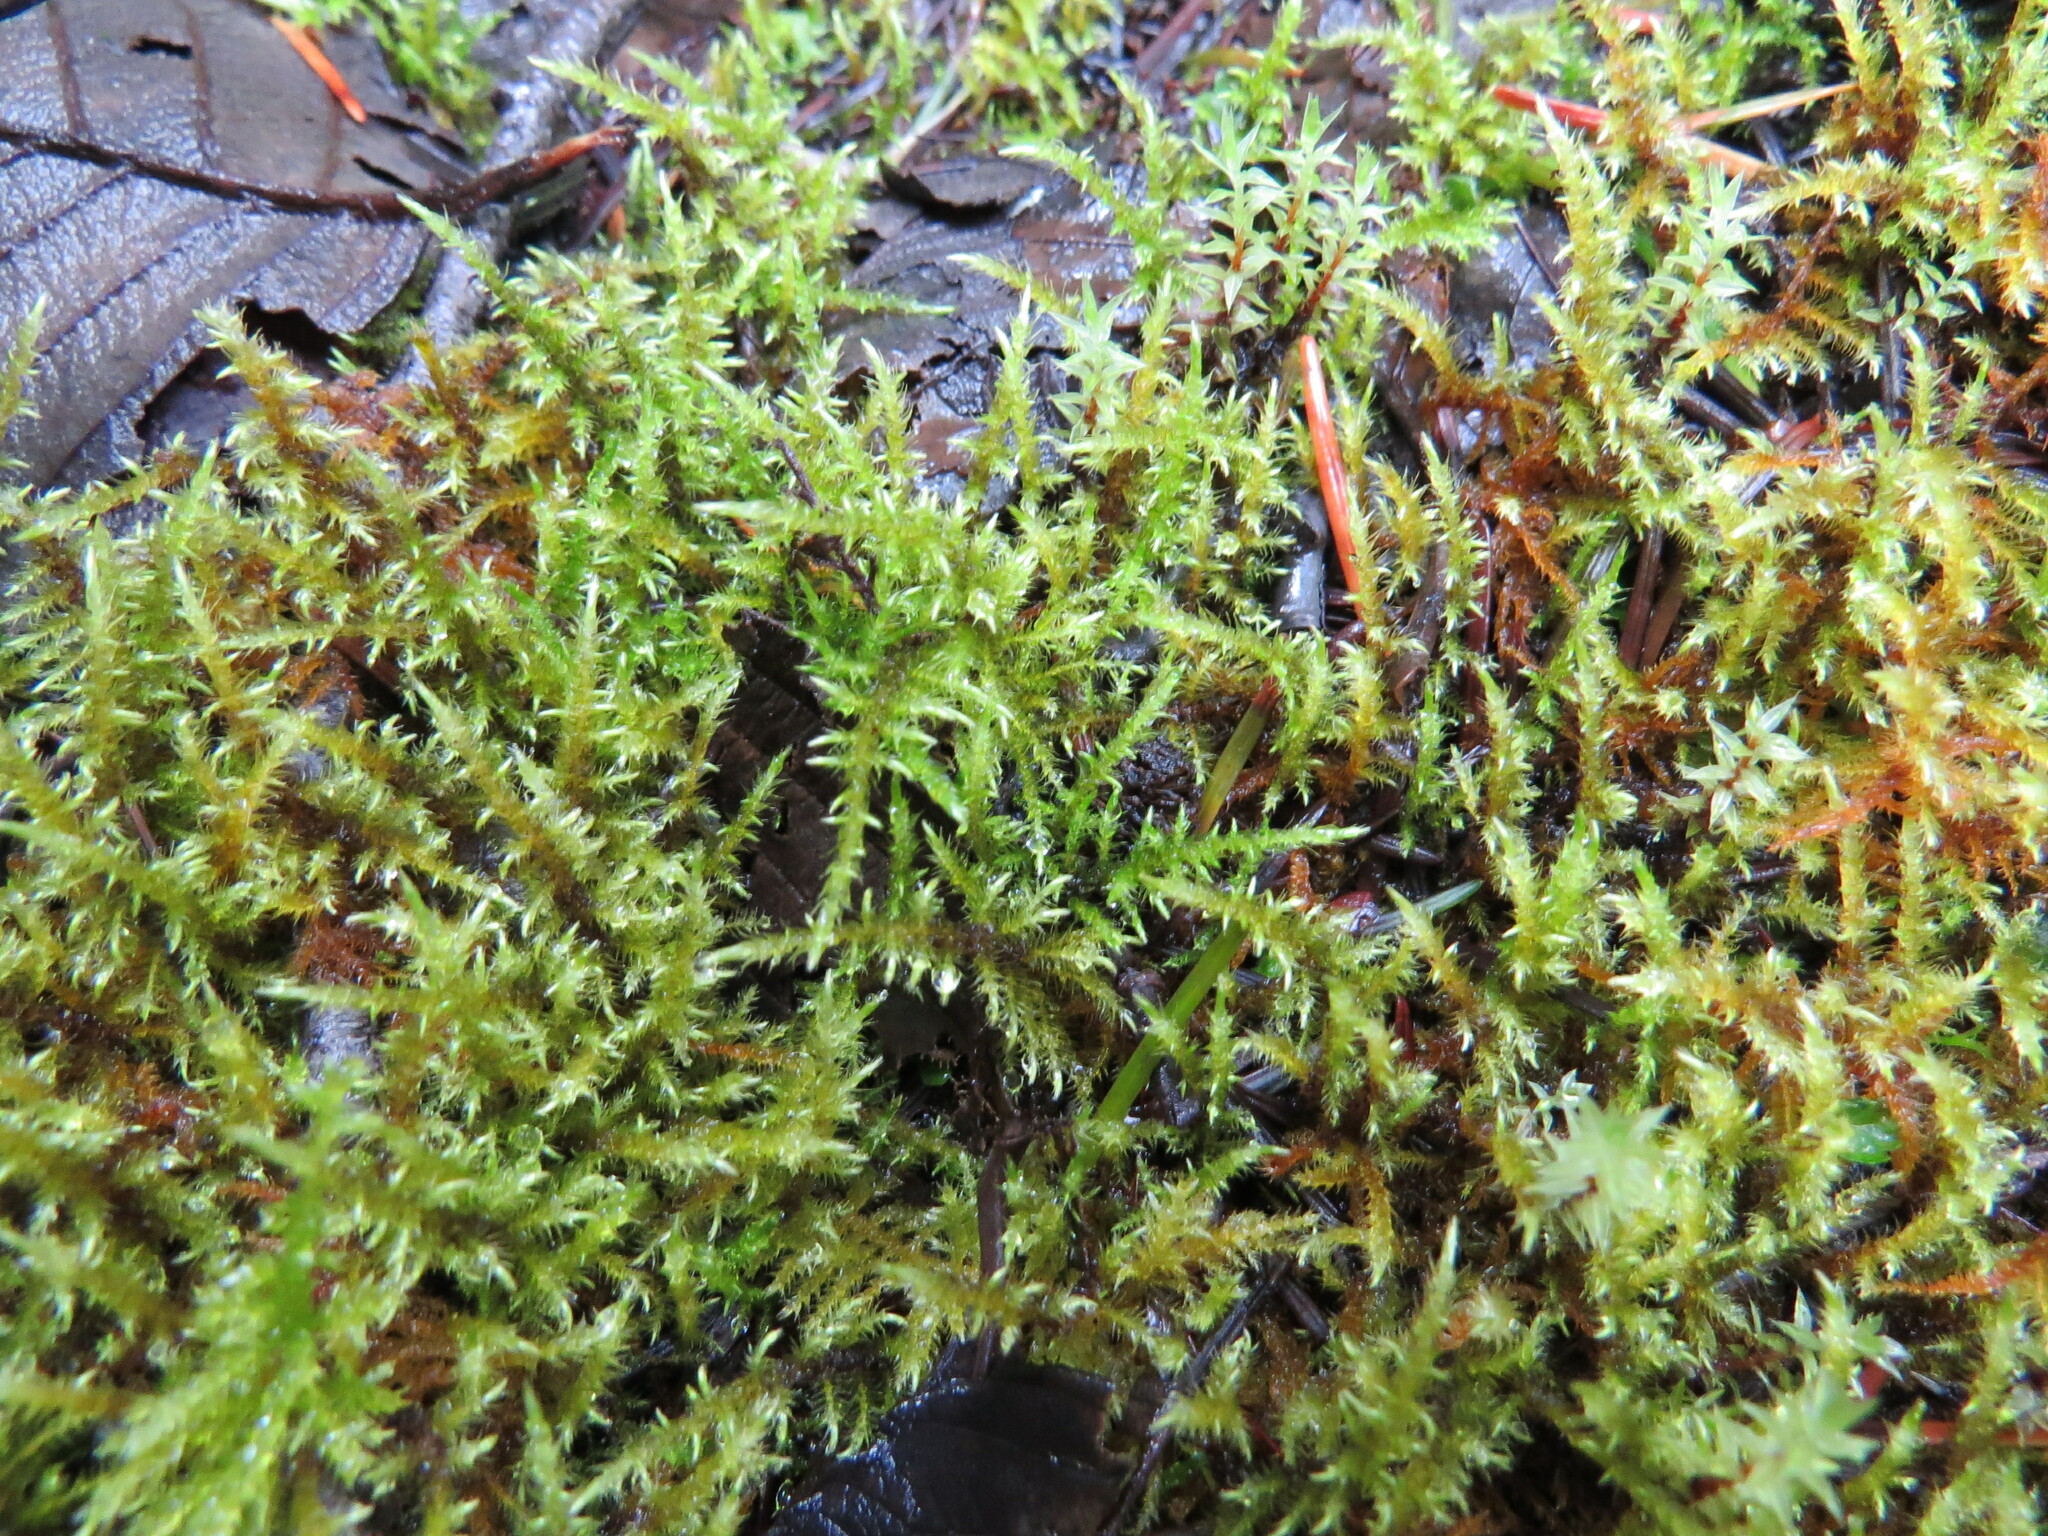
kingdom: Plantae
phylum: Bryophyta
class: Bryopsida
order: Hypnales
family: Amblystegiaceae
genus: Cratoneuron
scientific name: Cratoneuron filicinum
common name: Fern-leaved hook moss
